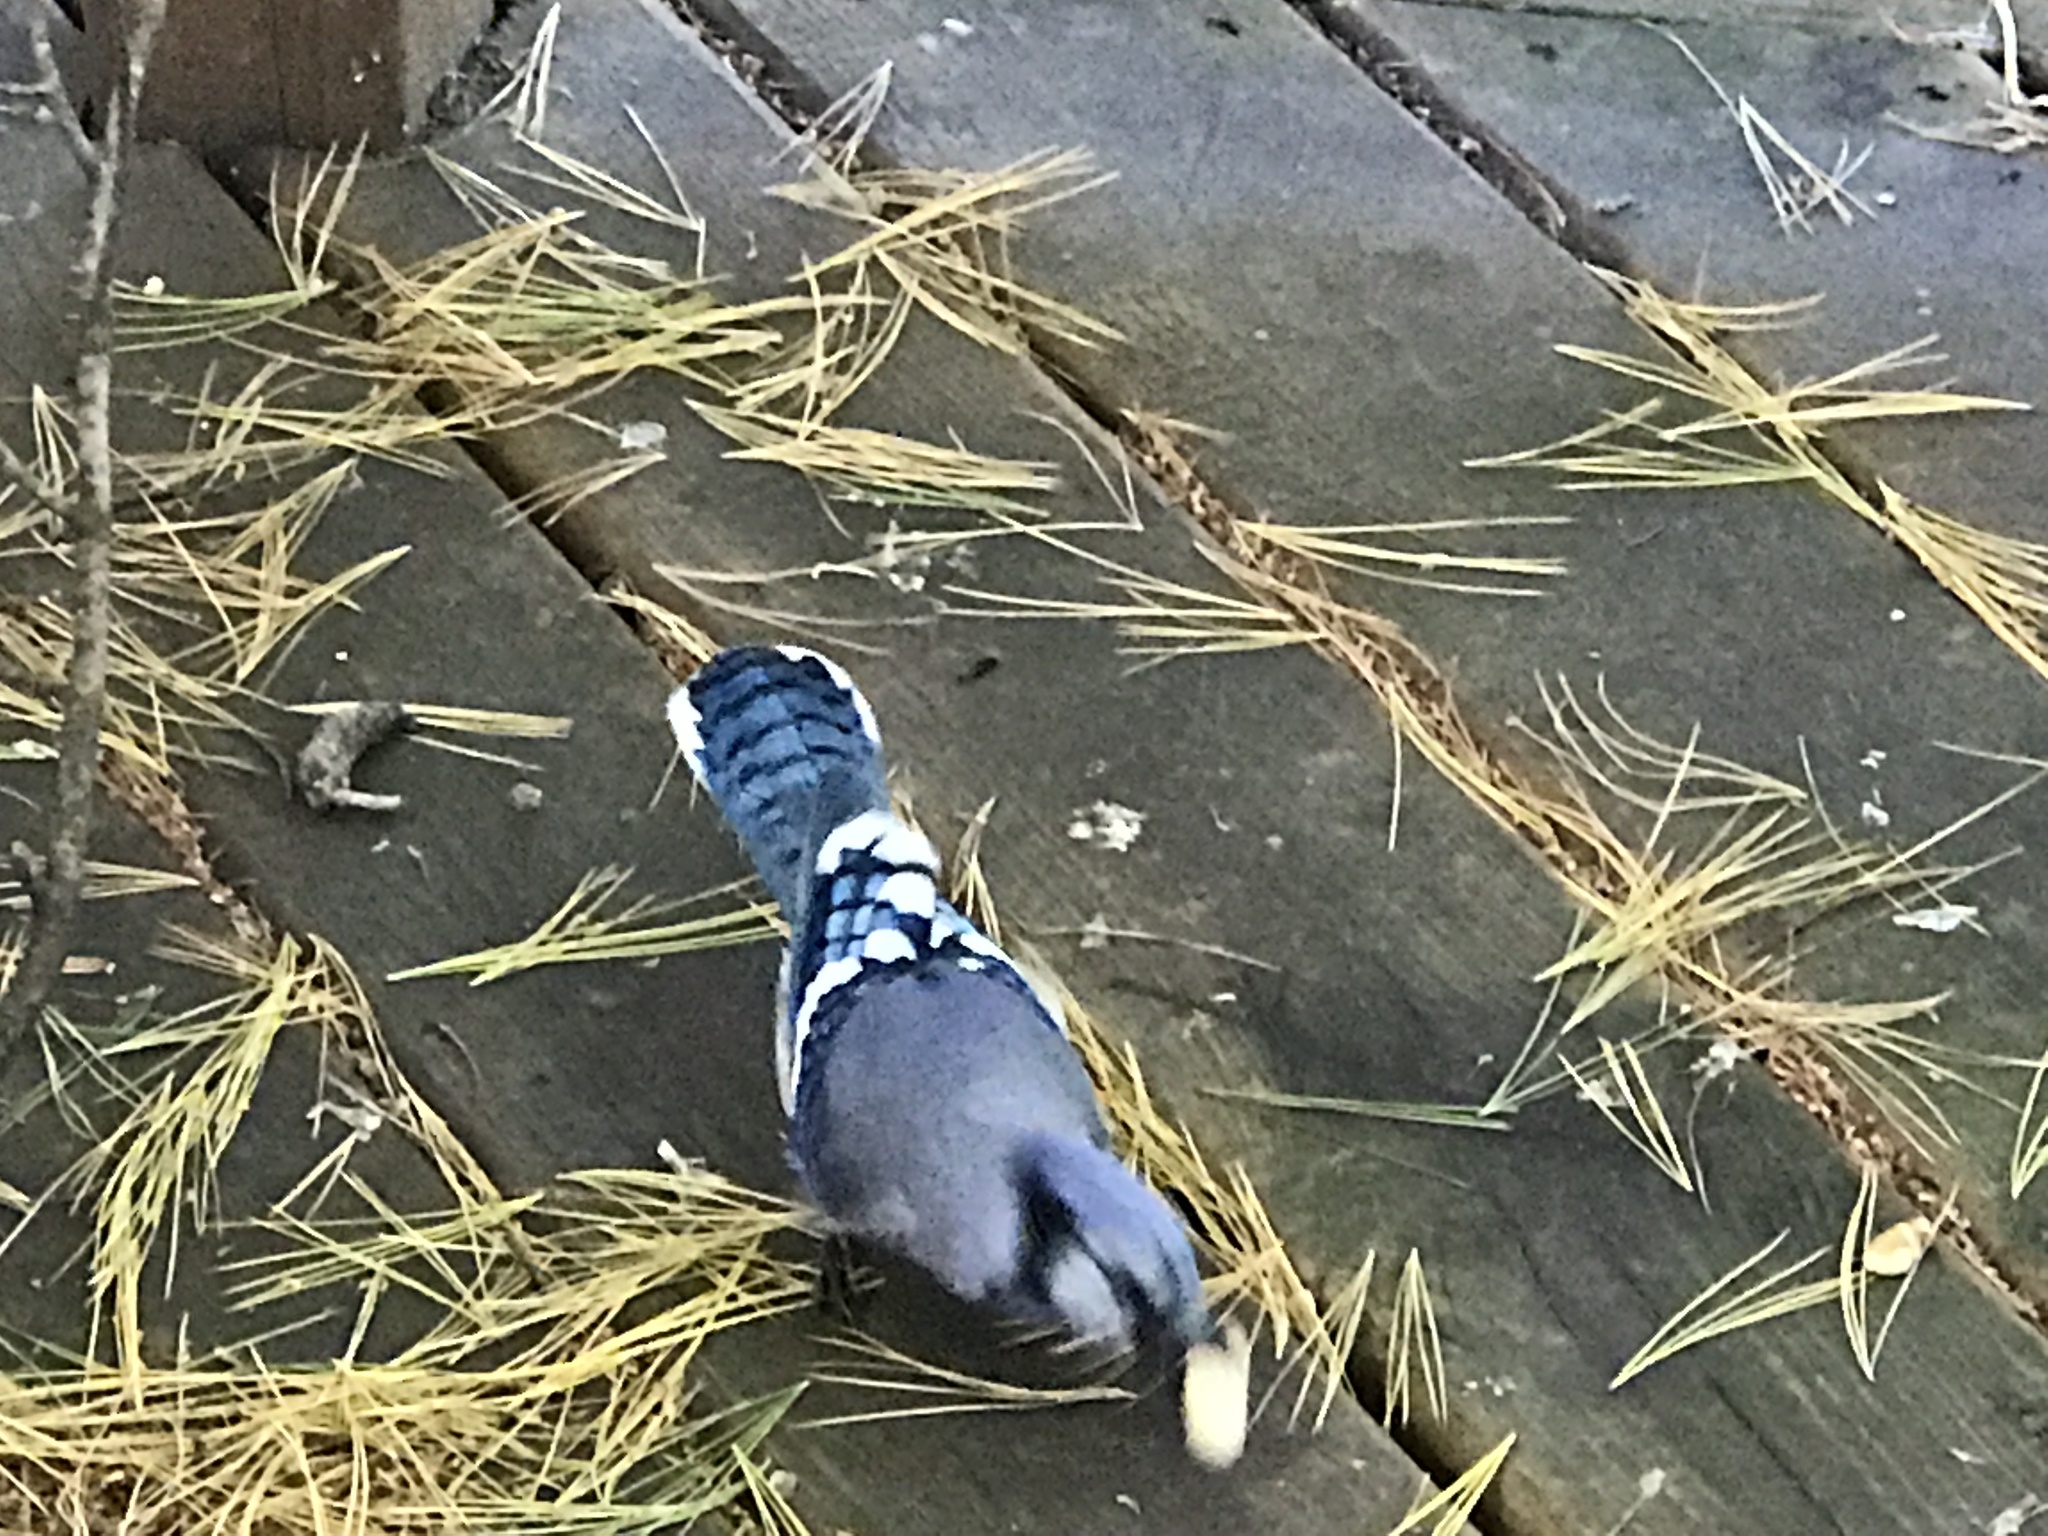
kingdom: Animalia
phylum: Chordata
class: Aves
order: Passeriformes
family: Corvidae
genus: Cyanocitta
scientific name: Cyanocitta cristata
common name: Blue jay
